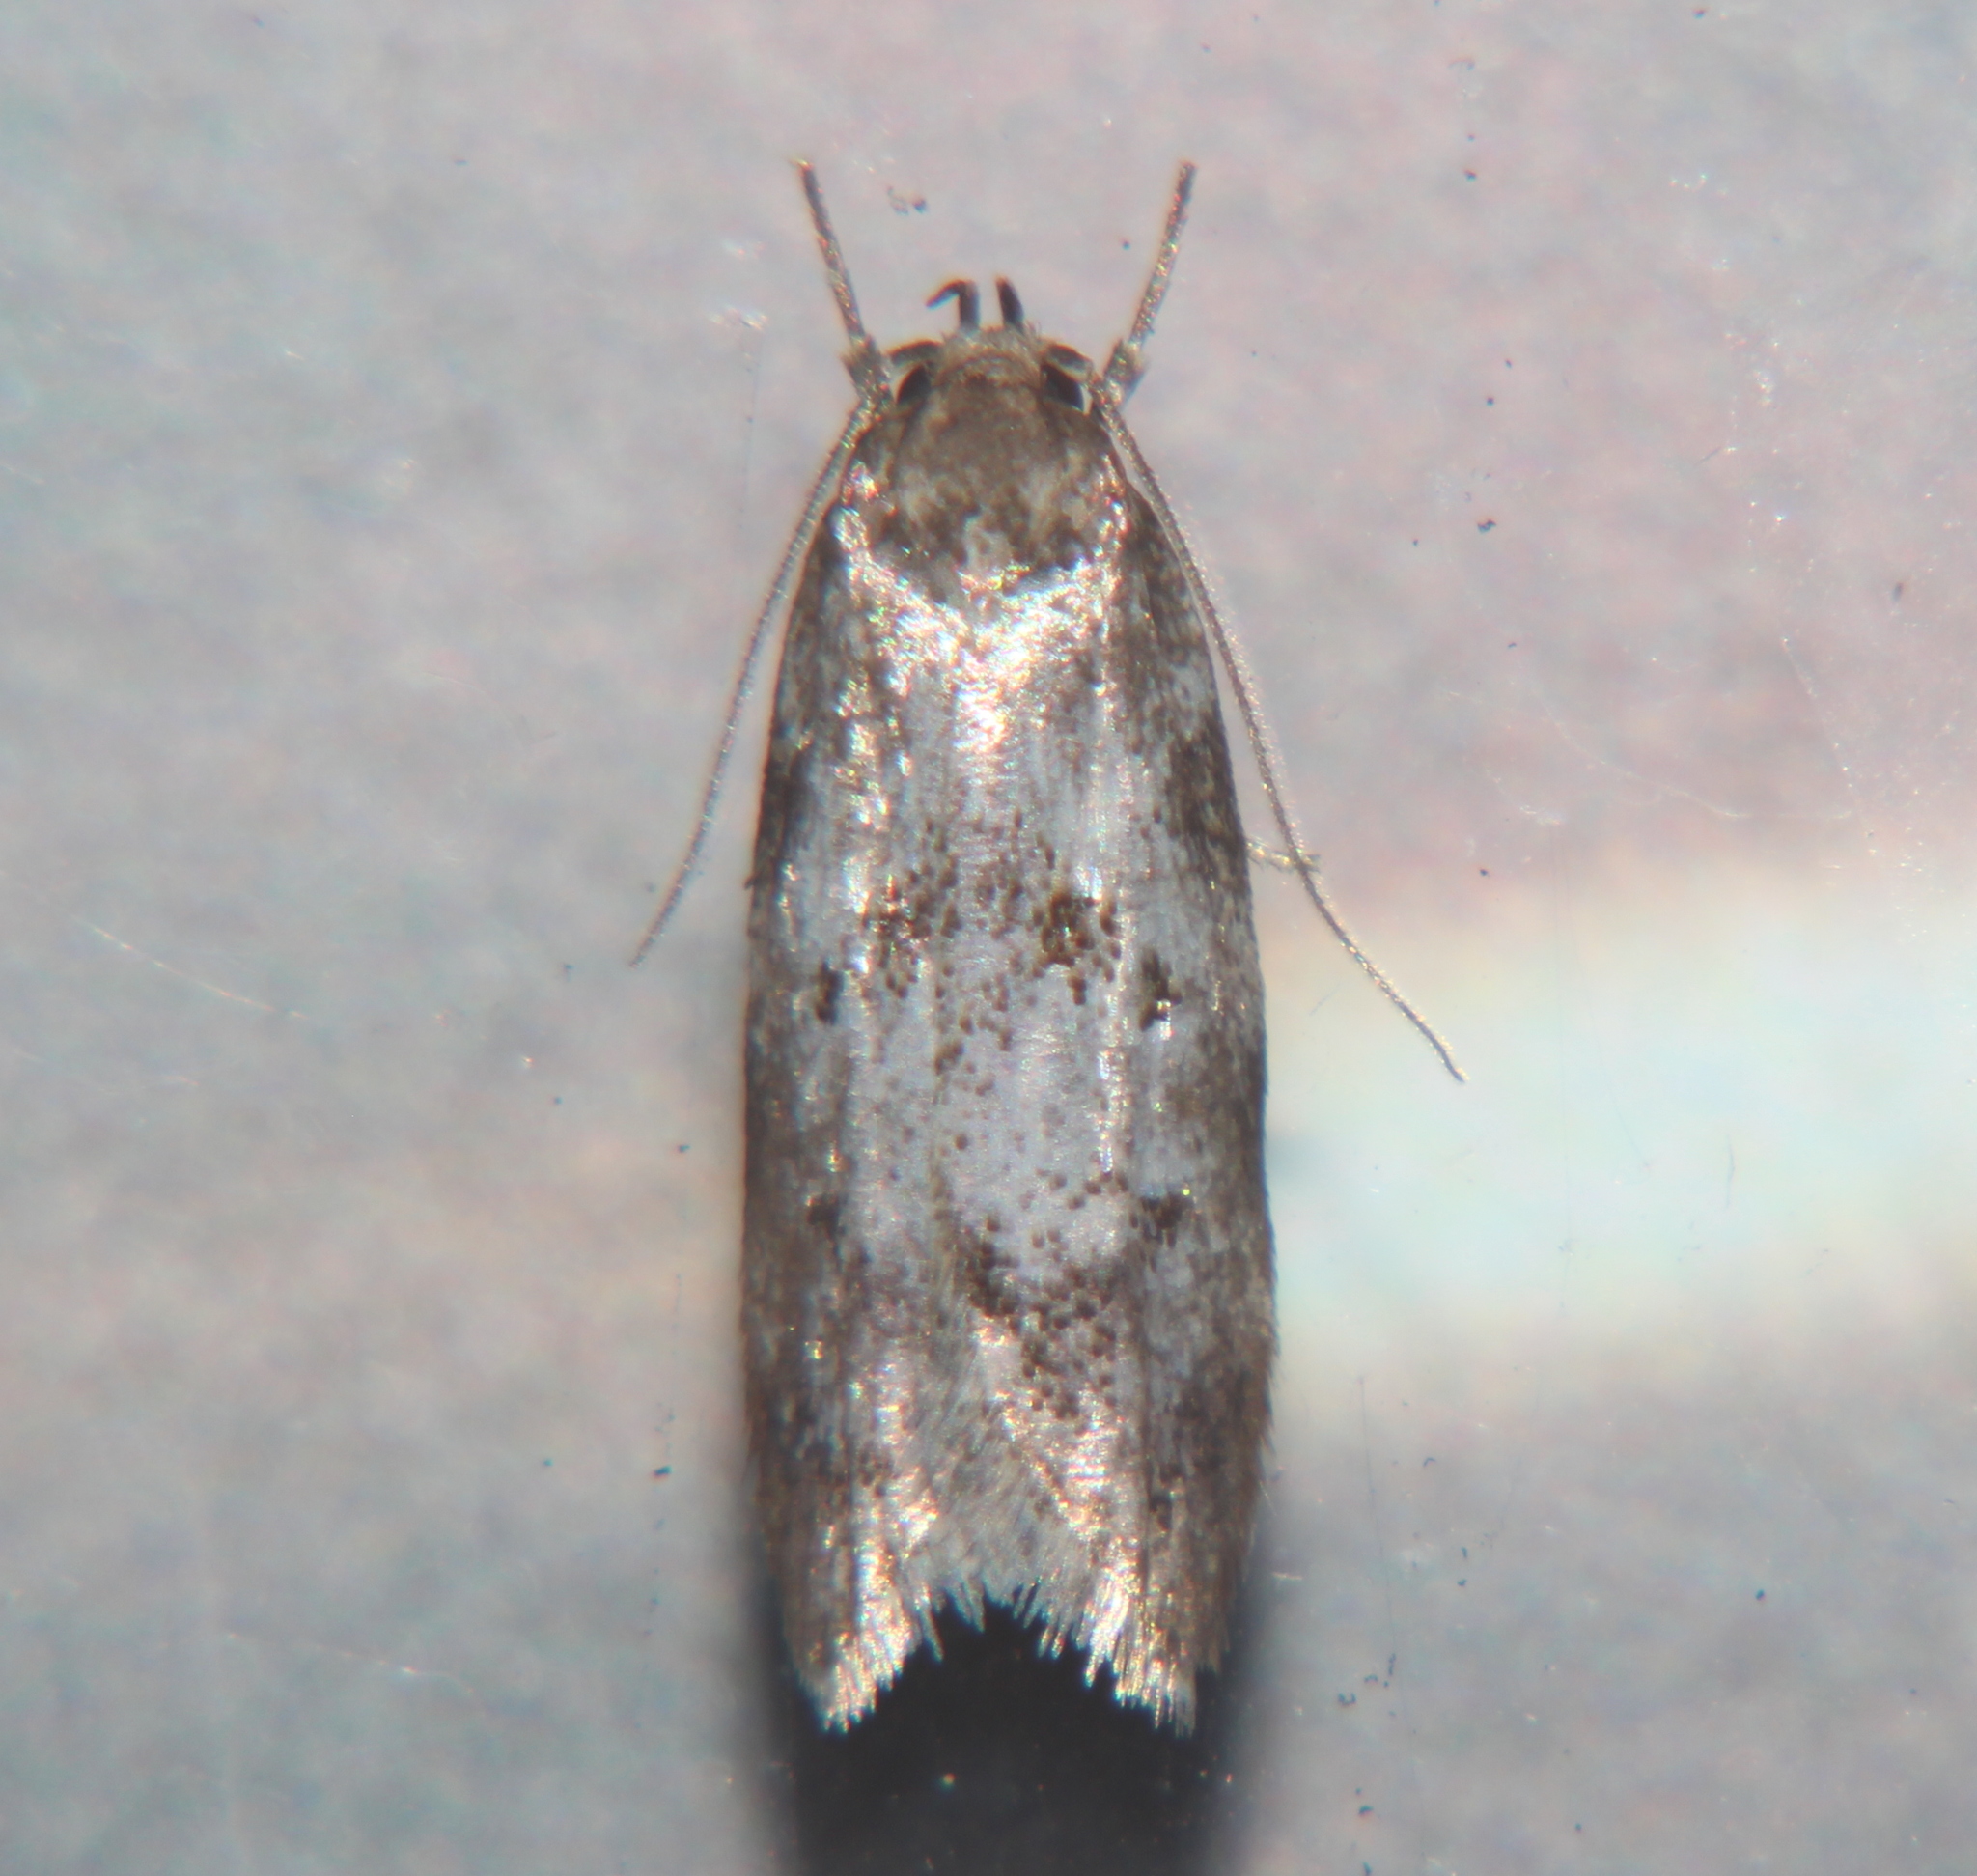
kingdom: Animalia
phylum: Arthropoda
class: Insecta
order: Lepidoptera
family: Oecophoridae
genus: Tingena
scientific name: Tingena clarkei
